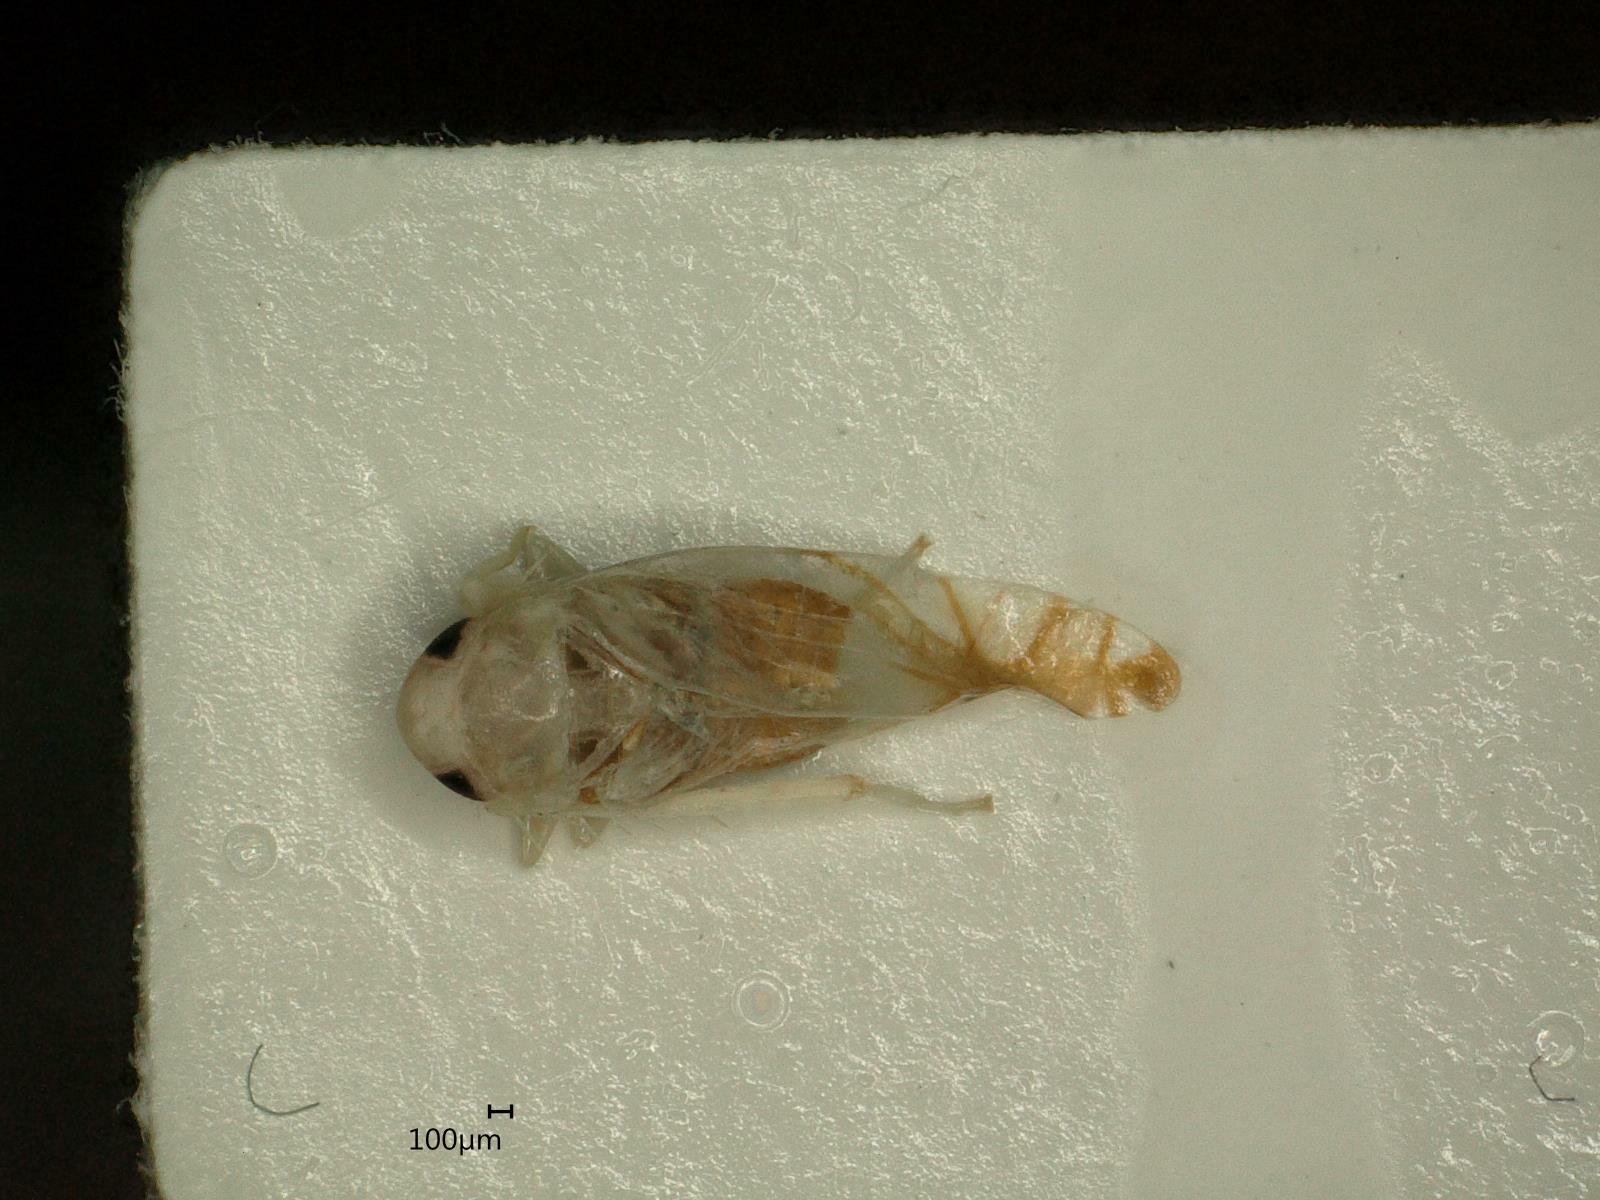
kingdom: Animalia
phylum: Arthropoda
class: Insecta
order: Hemiptera
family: Cicadellidae
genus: Aguriahana
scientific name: Aguriahana stellulata
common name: Leafhopper
